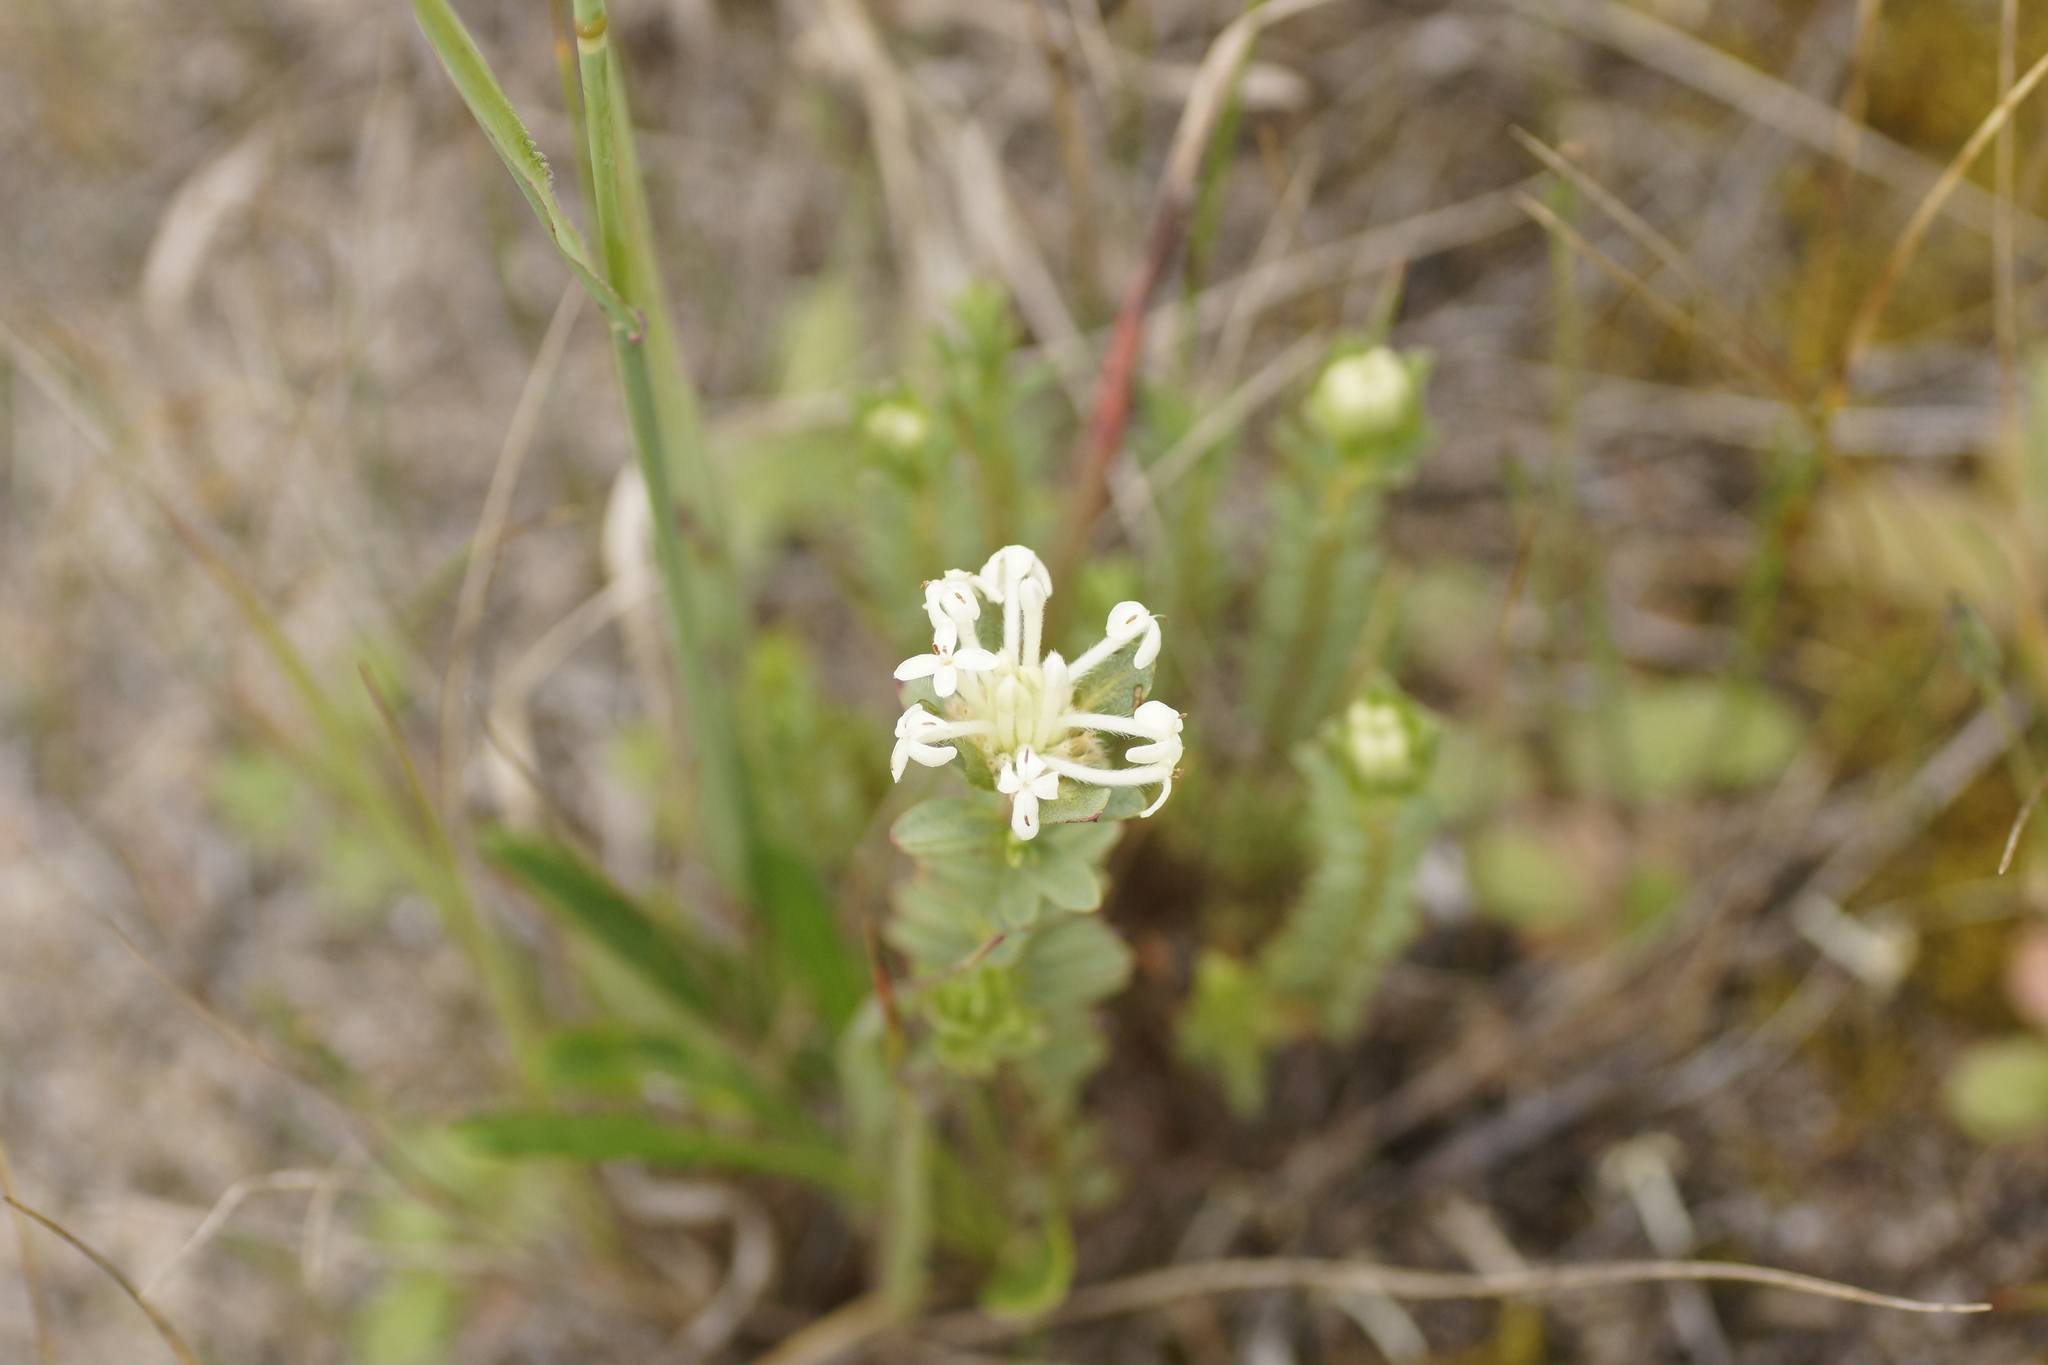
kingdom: Plantae
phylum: Tracheophyta
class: Magnoliopsida
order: Malvales
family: Thymelaeaceae
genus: Pimelea
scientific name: Pimelea linifolia
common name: Queen-of-the-bush
